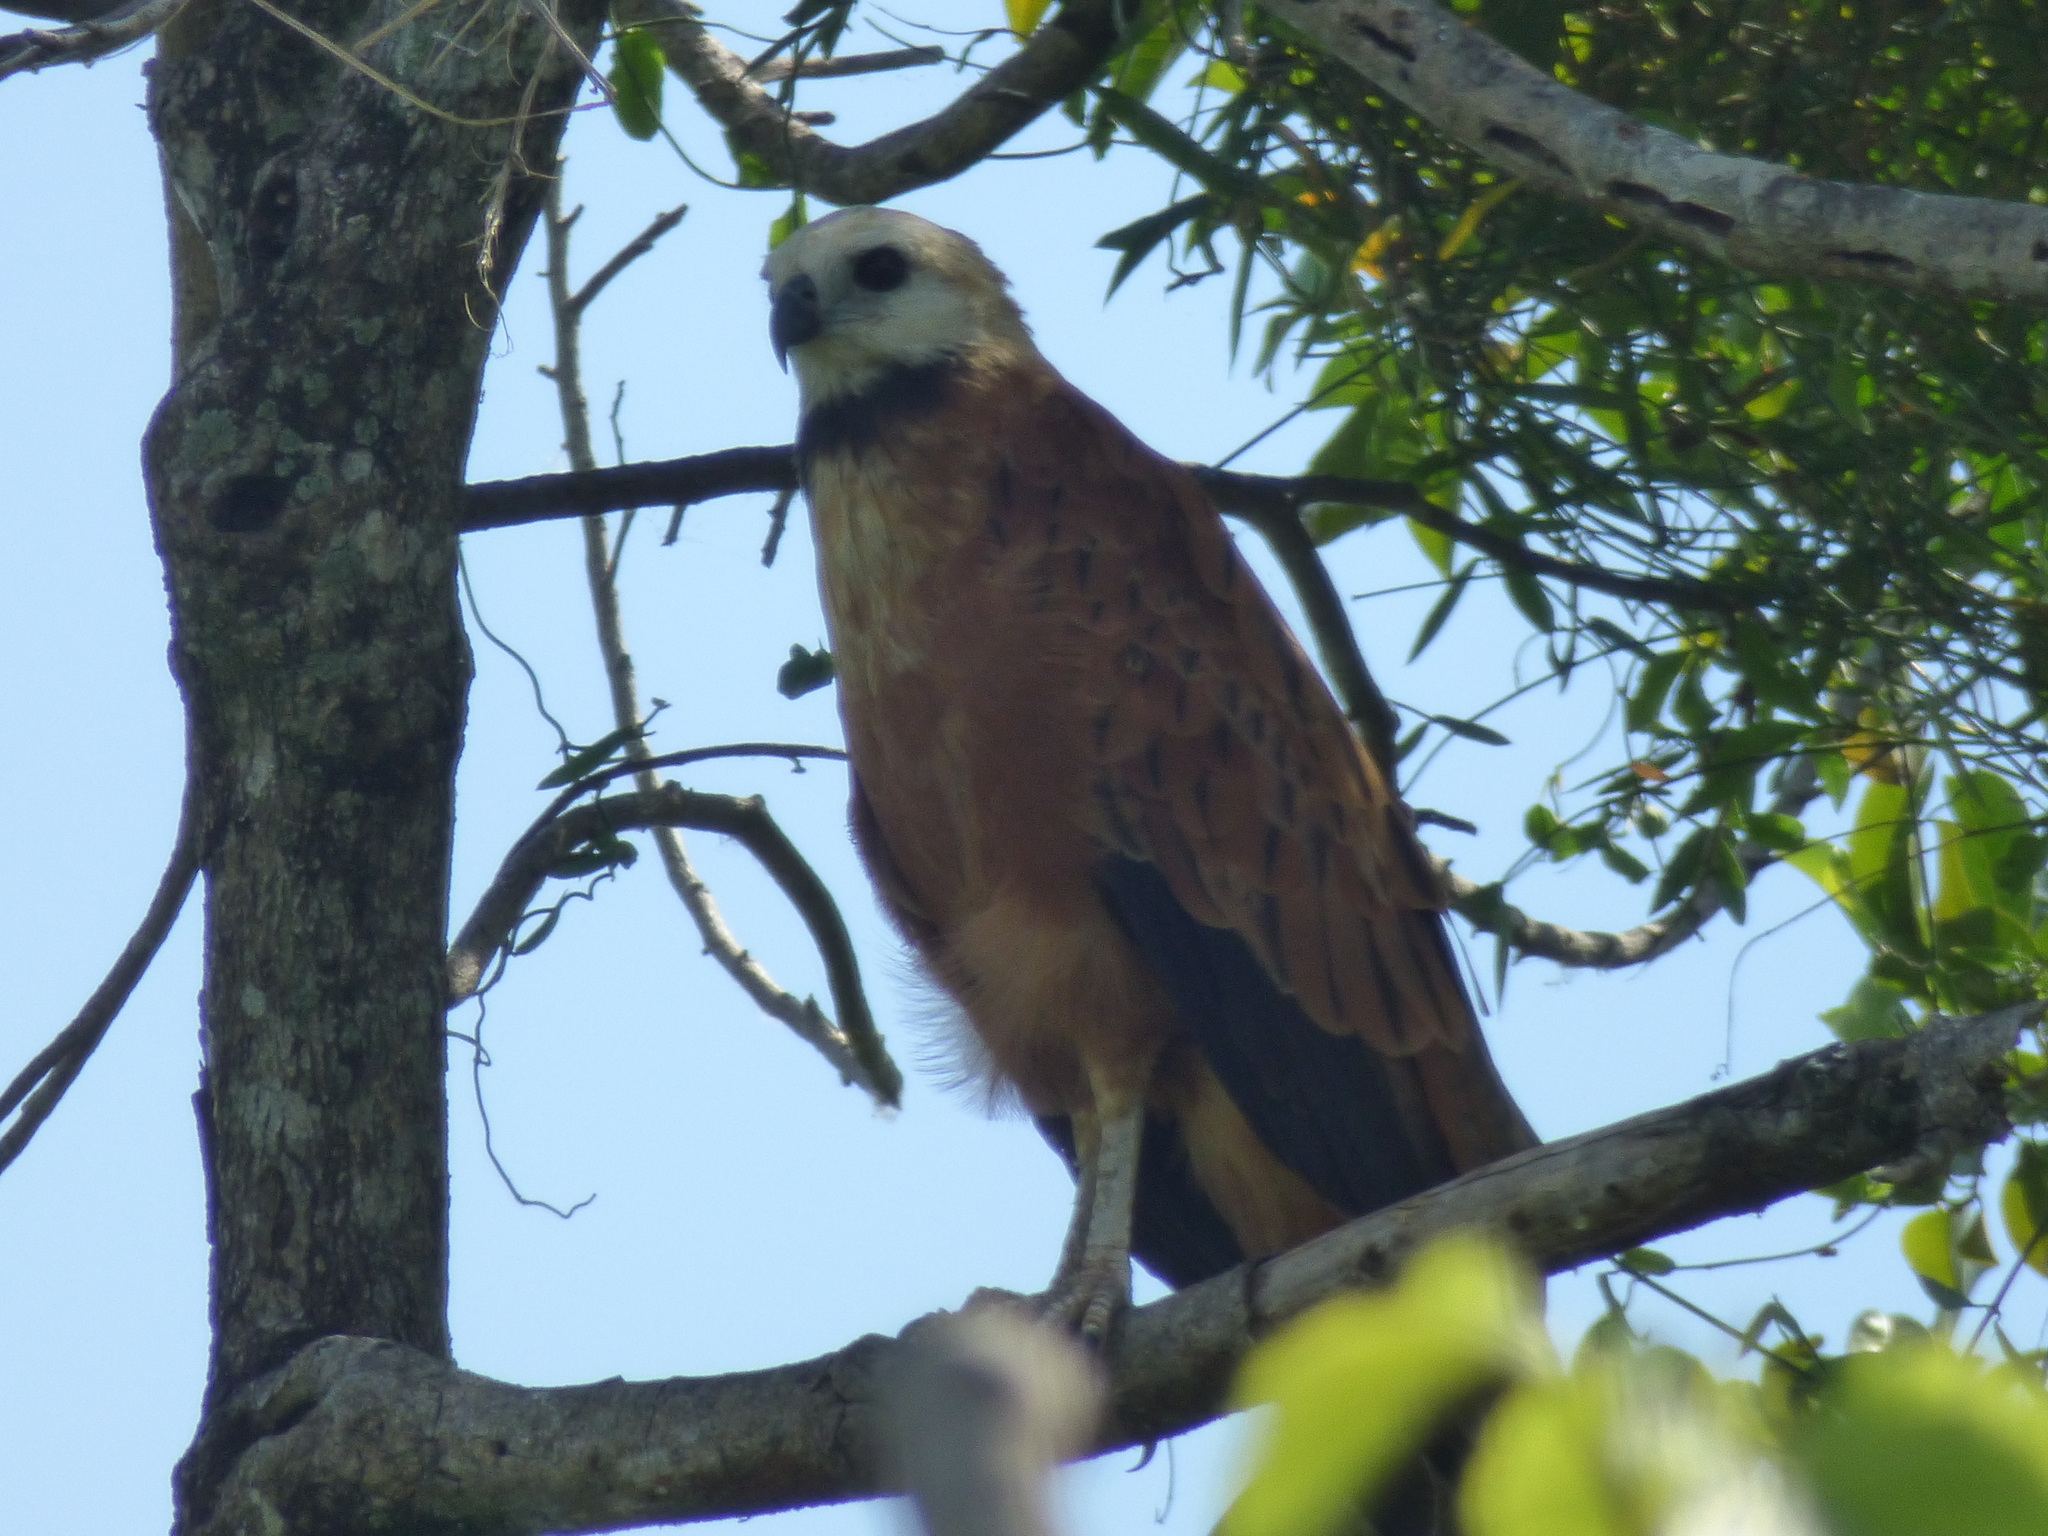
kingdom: Animalia
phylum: Chordata
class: Aves
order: Accipitriformes
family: Accipitridae
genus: Busarellus
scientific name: Busarellus nigricollis
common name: Black-collared hawk
